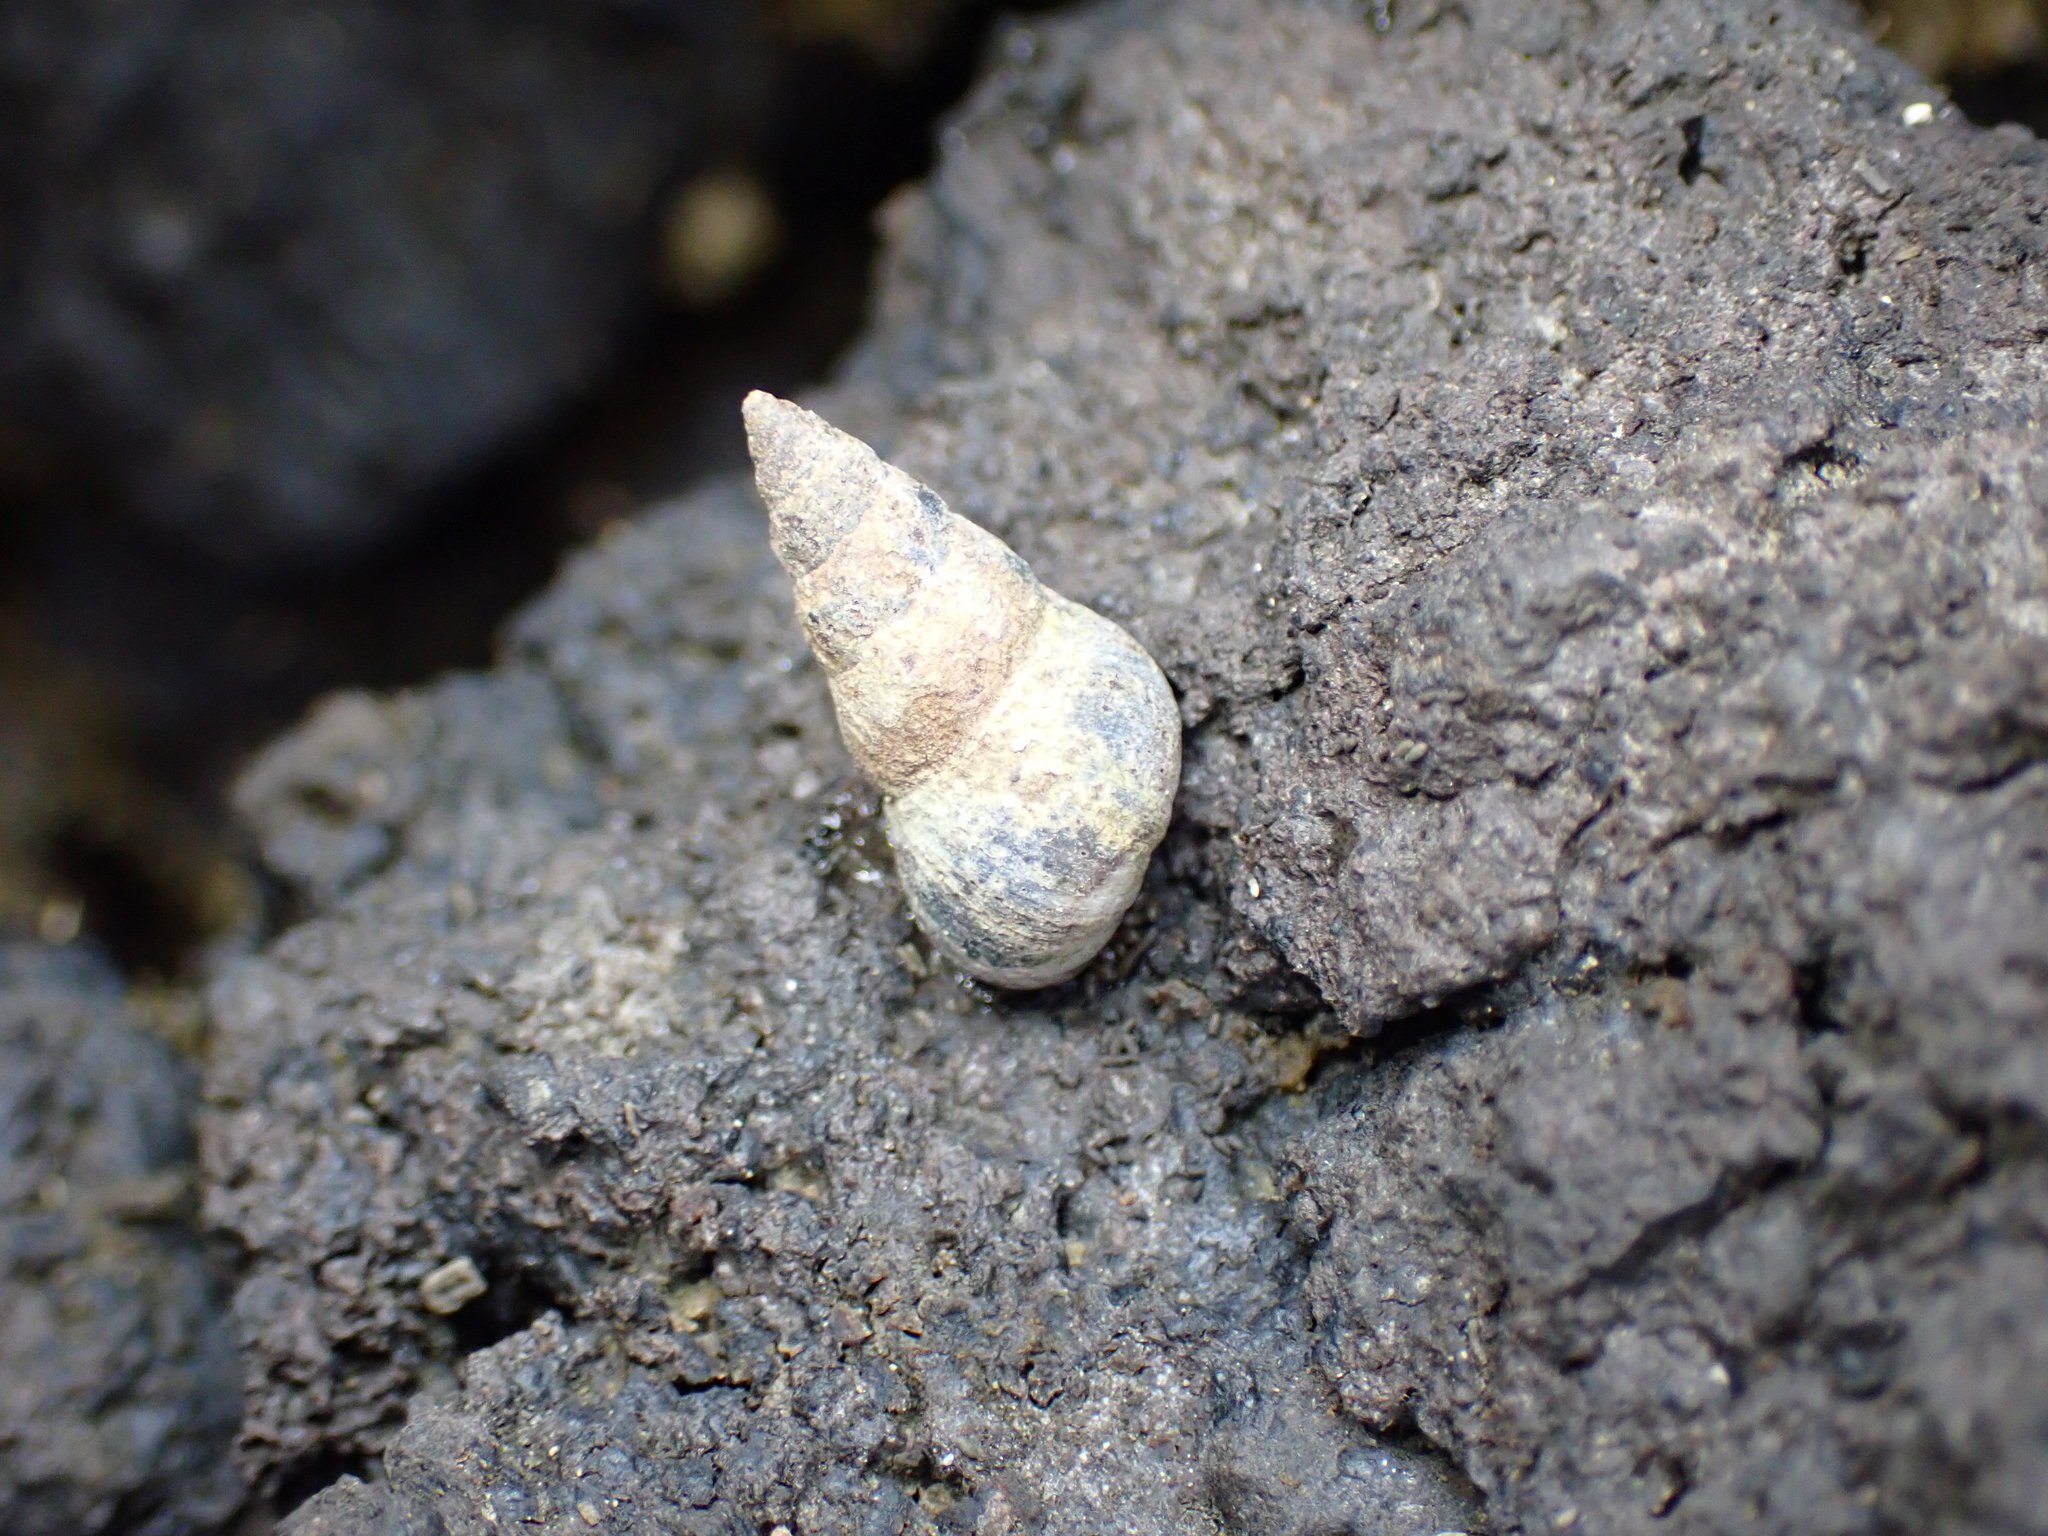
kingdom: Animalia
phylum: Mollusca
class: Gastropoda
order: Littorinimorpha
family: Littorinidae
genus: Austrolittorina
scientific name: Austrolittorina antipodum
